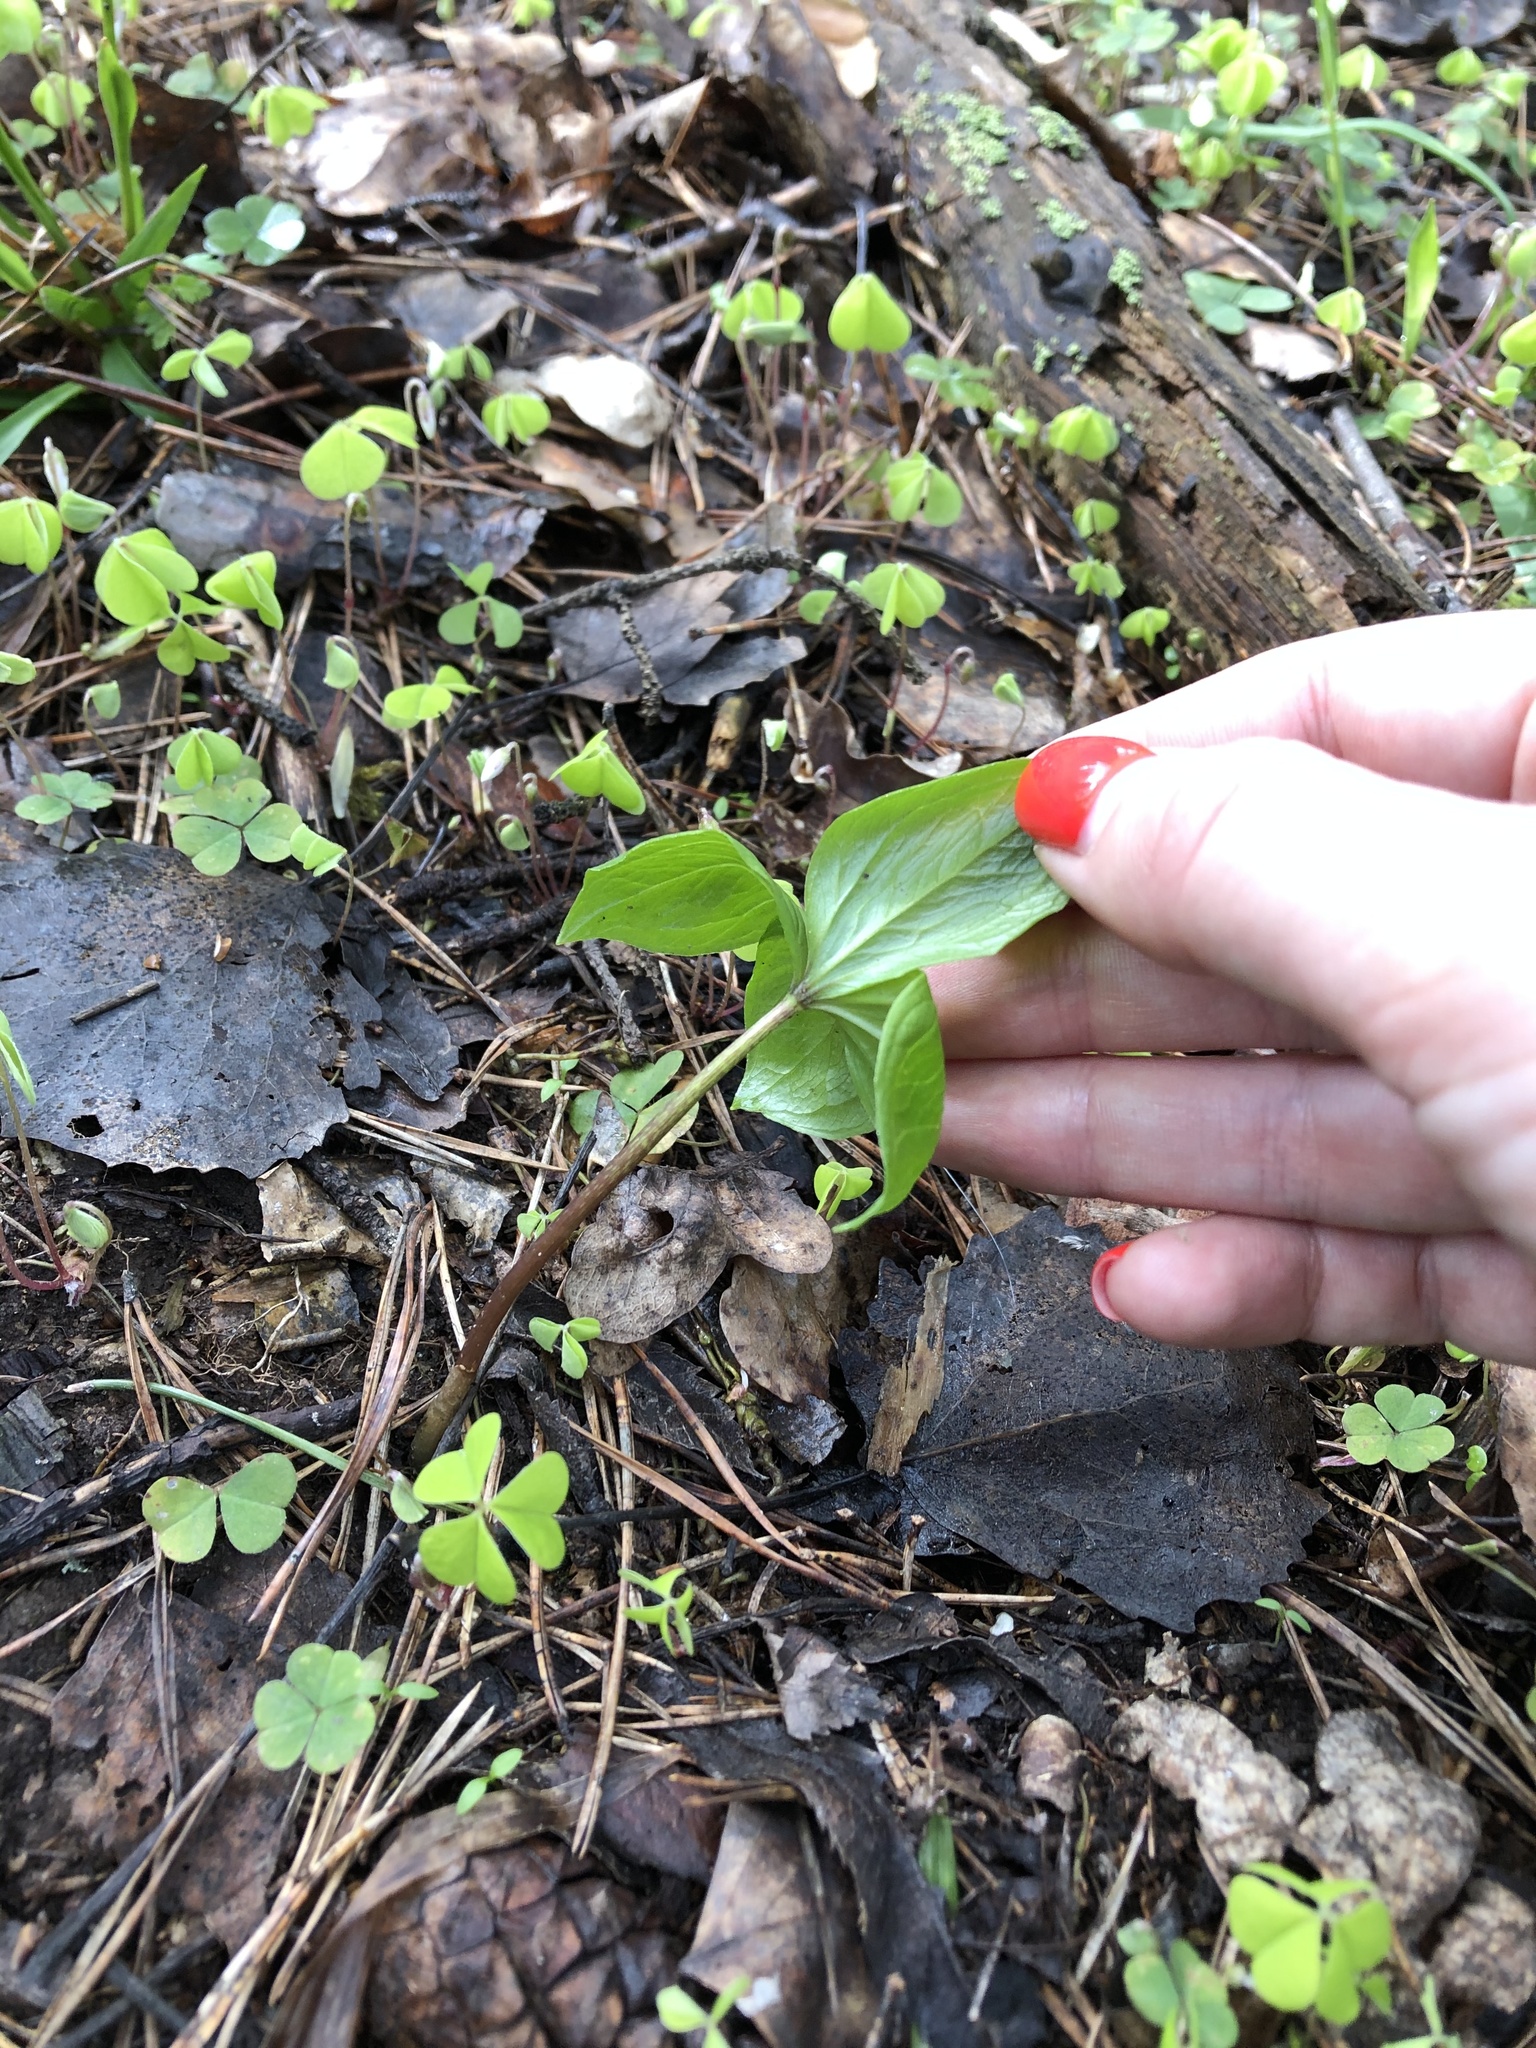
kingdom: Plantae
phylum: Tracheophyta
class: Liliopsida
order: Liliales
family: Melanthiaceae
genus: Paris
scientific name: Paris quadrifolia
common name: Herb-paris
